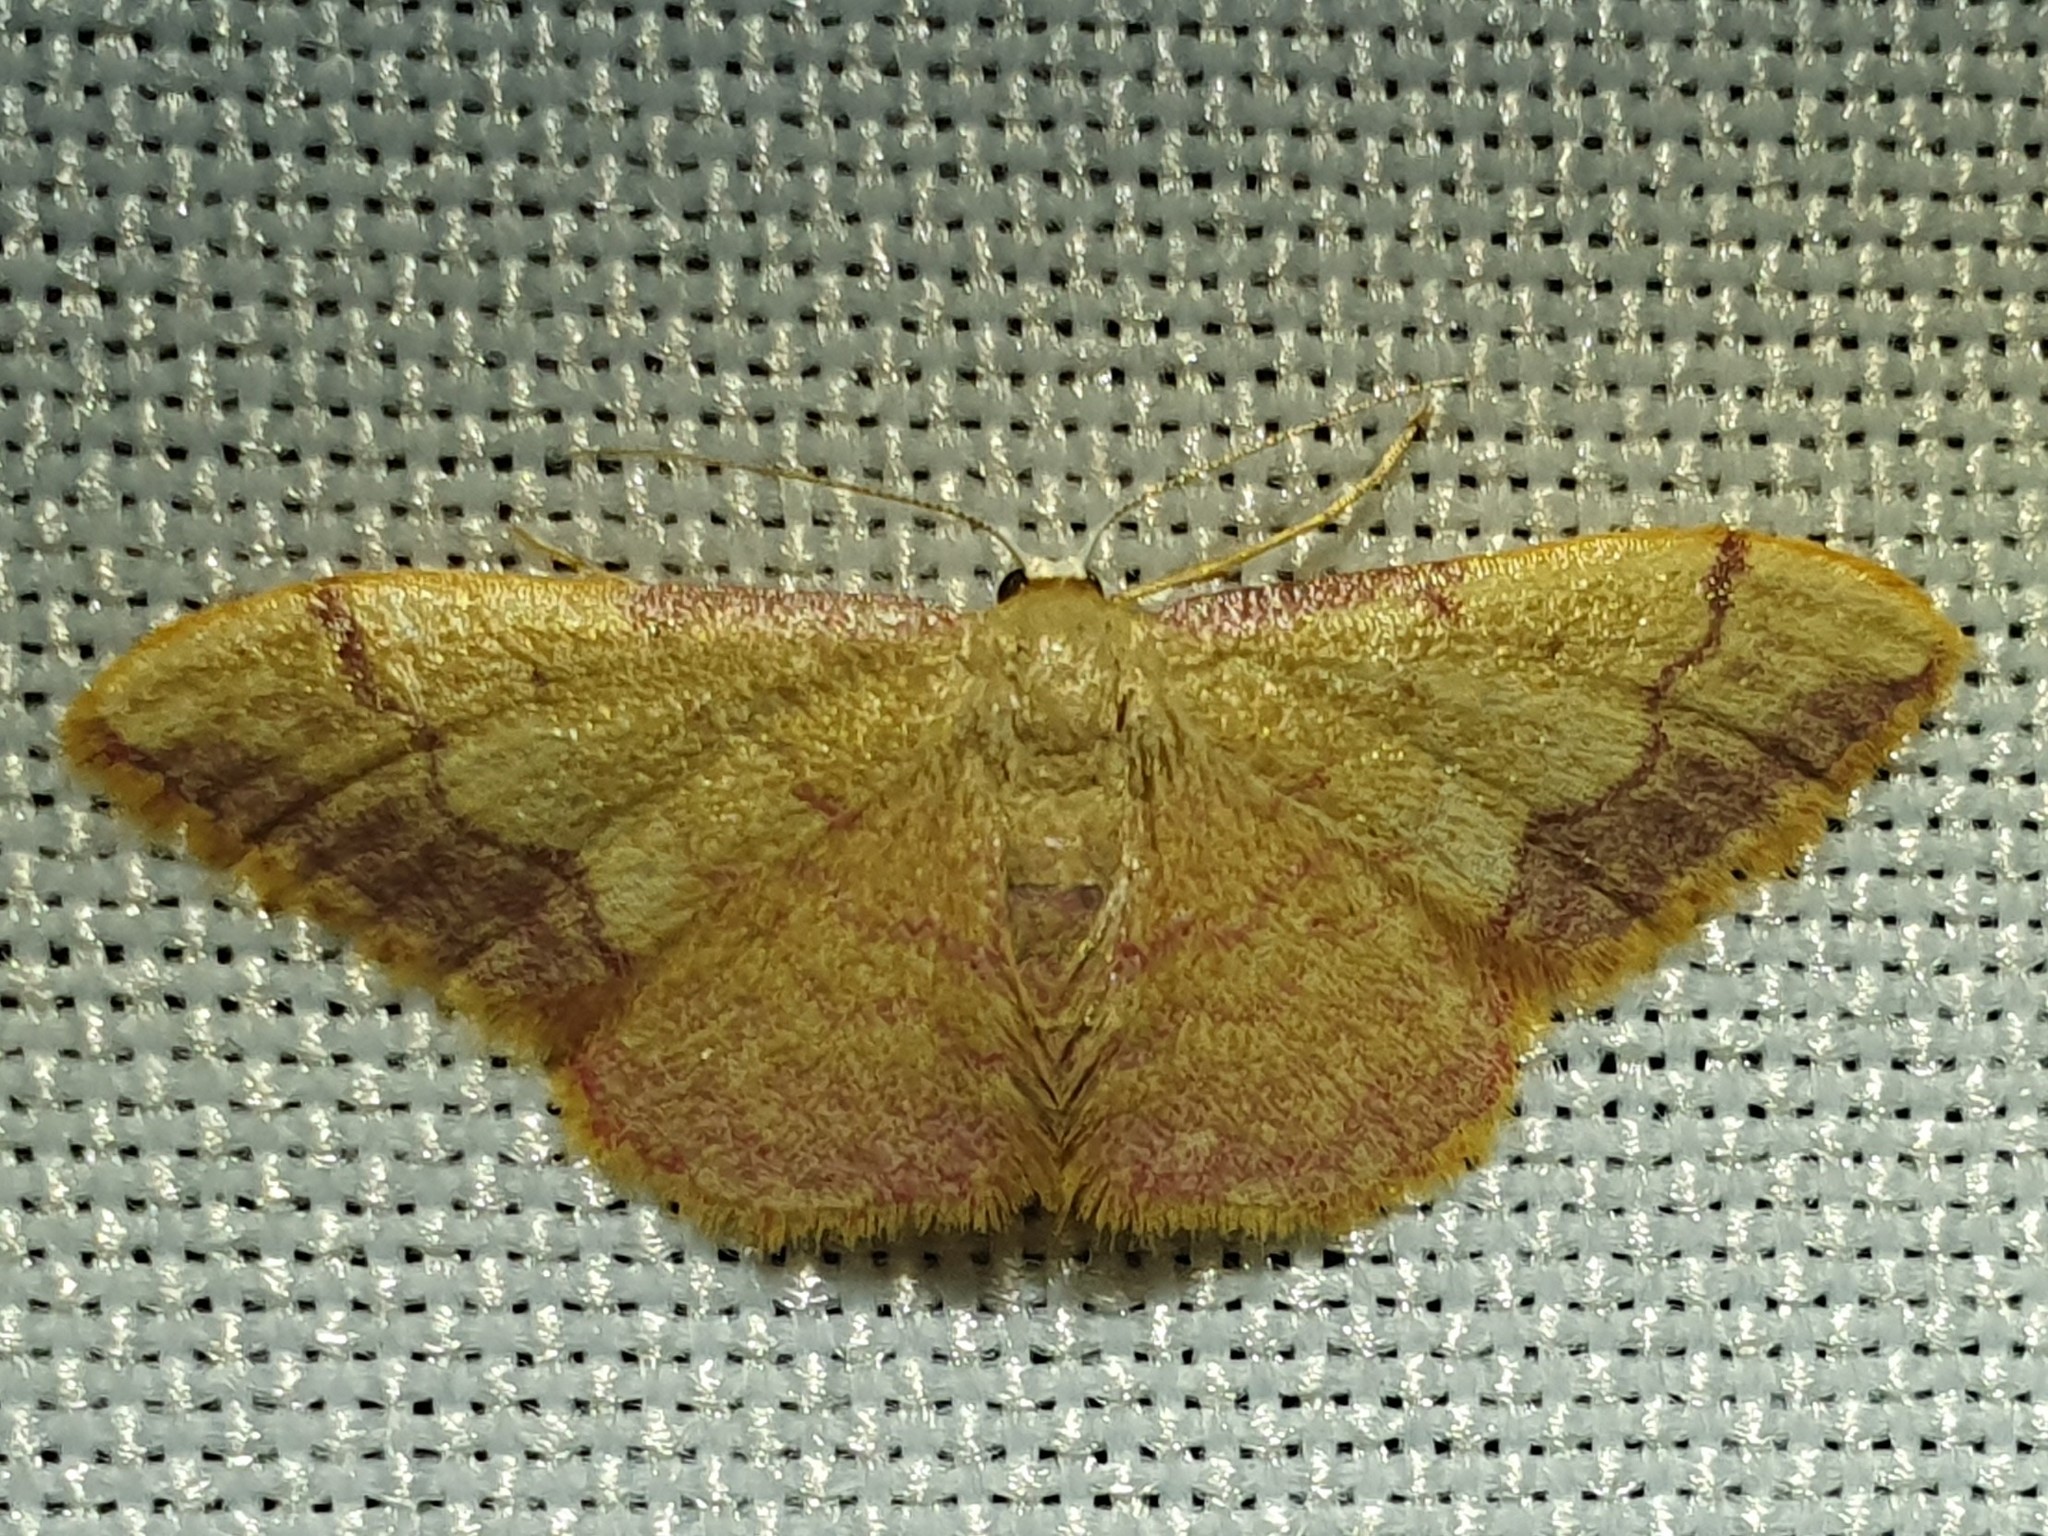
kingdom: Animalia
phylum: Arthropoda
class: Insecta
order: Lepidoptera
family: Geometridae
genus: Idaea
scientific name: Idaea ostrinaria
